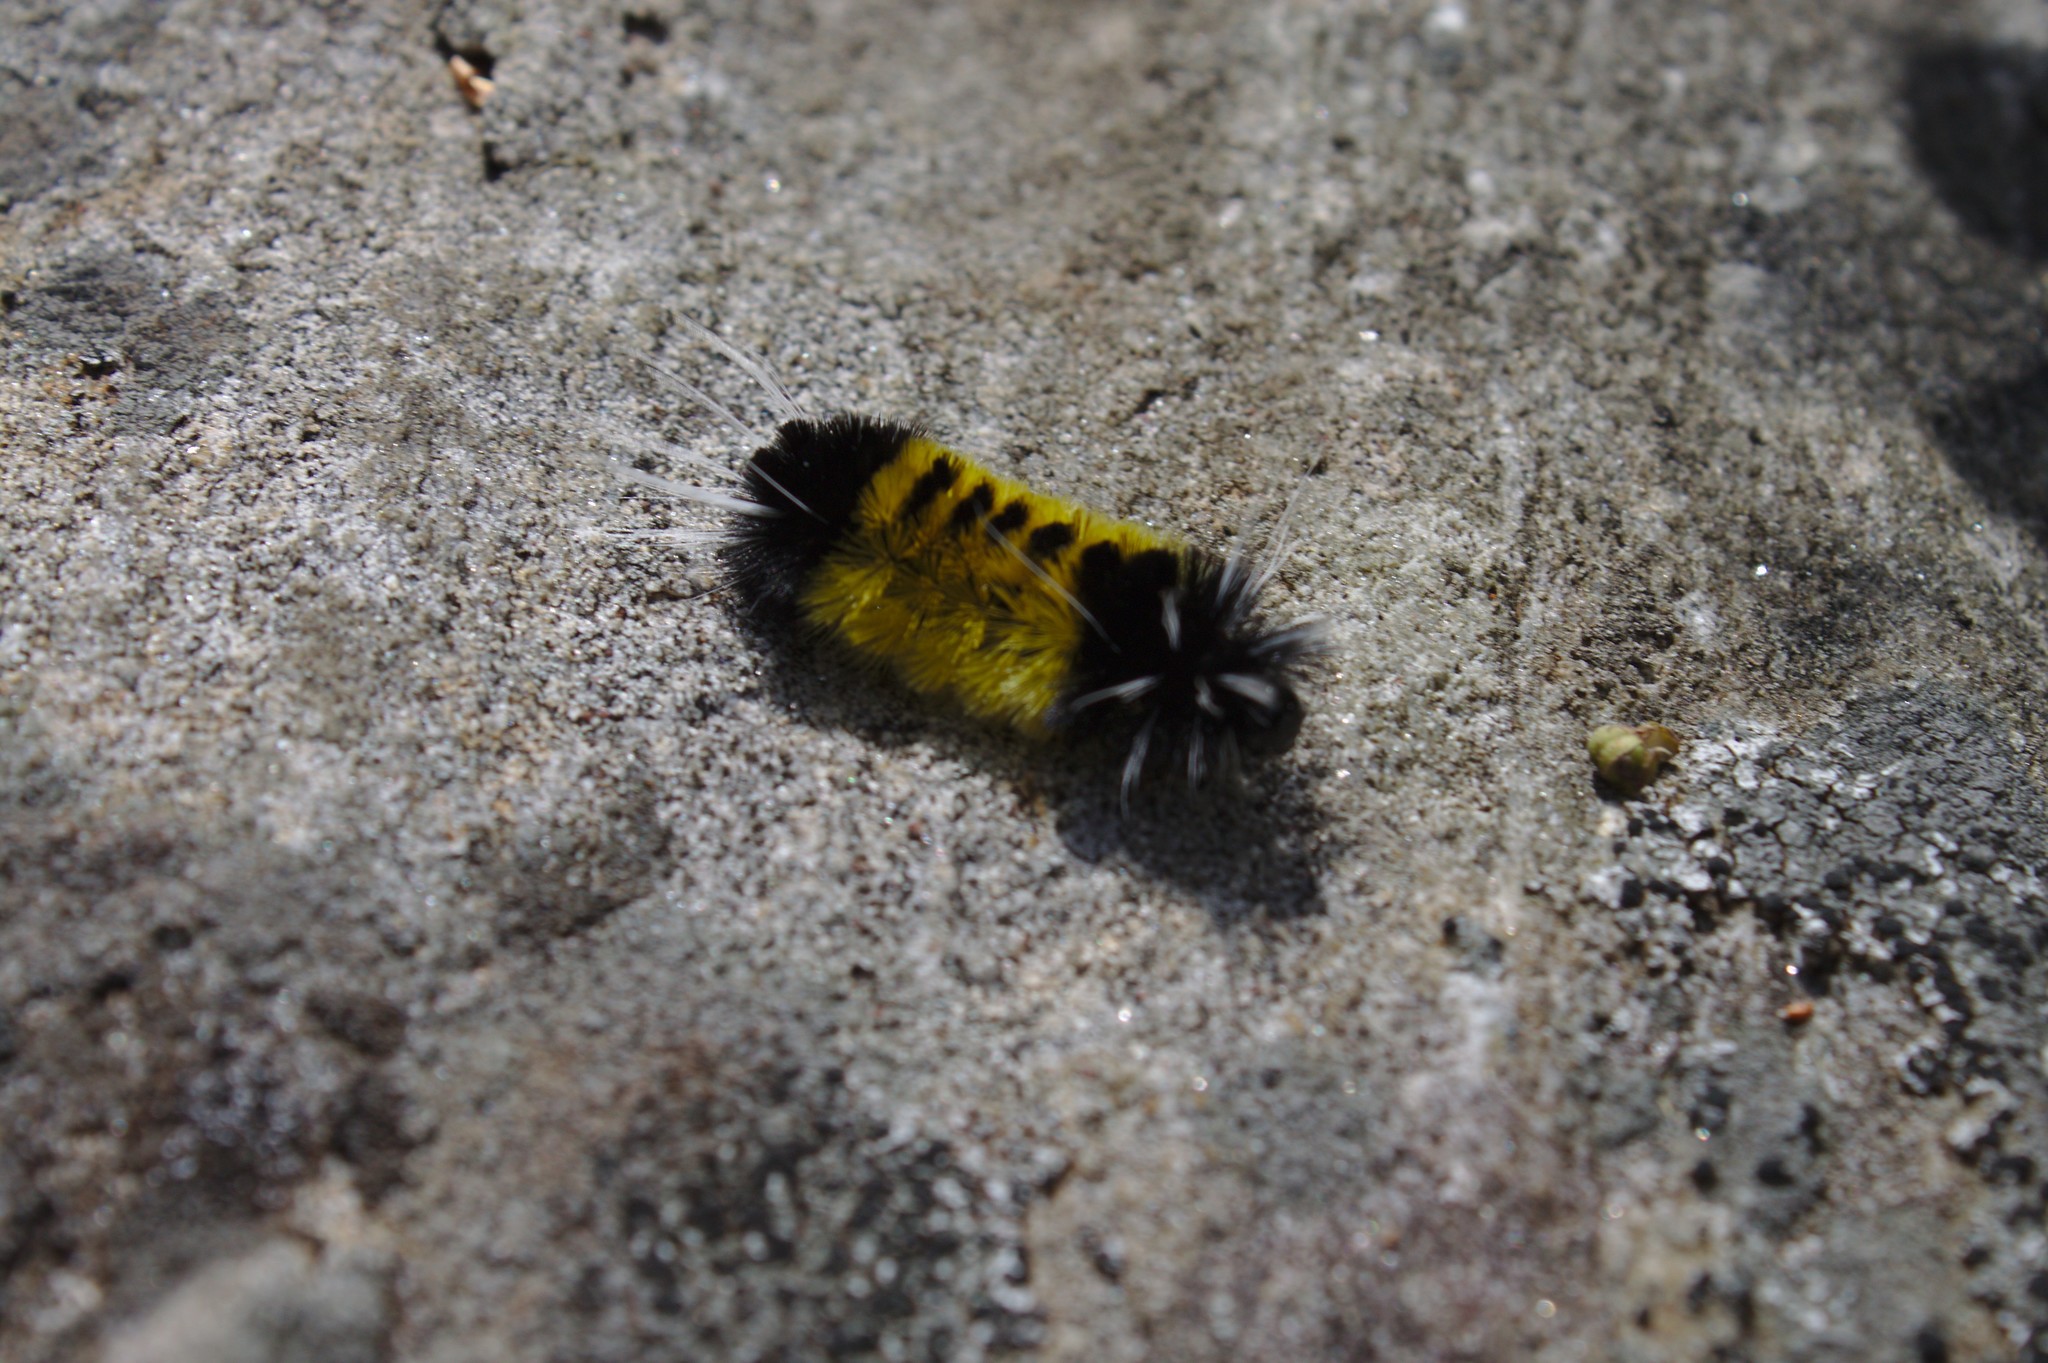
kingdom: Animalia
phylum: Arthropoda
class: Insecta
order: Lepidoptera
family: Erebidae
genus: Lophocampa
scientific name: Lophocampa maculata
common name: Spotted tussock moth
